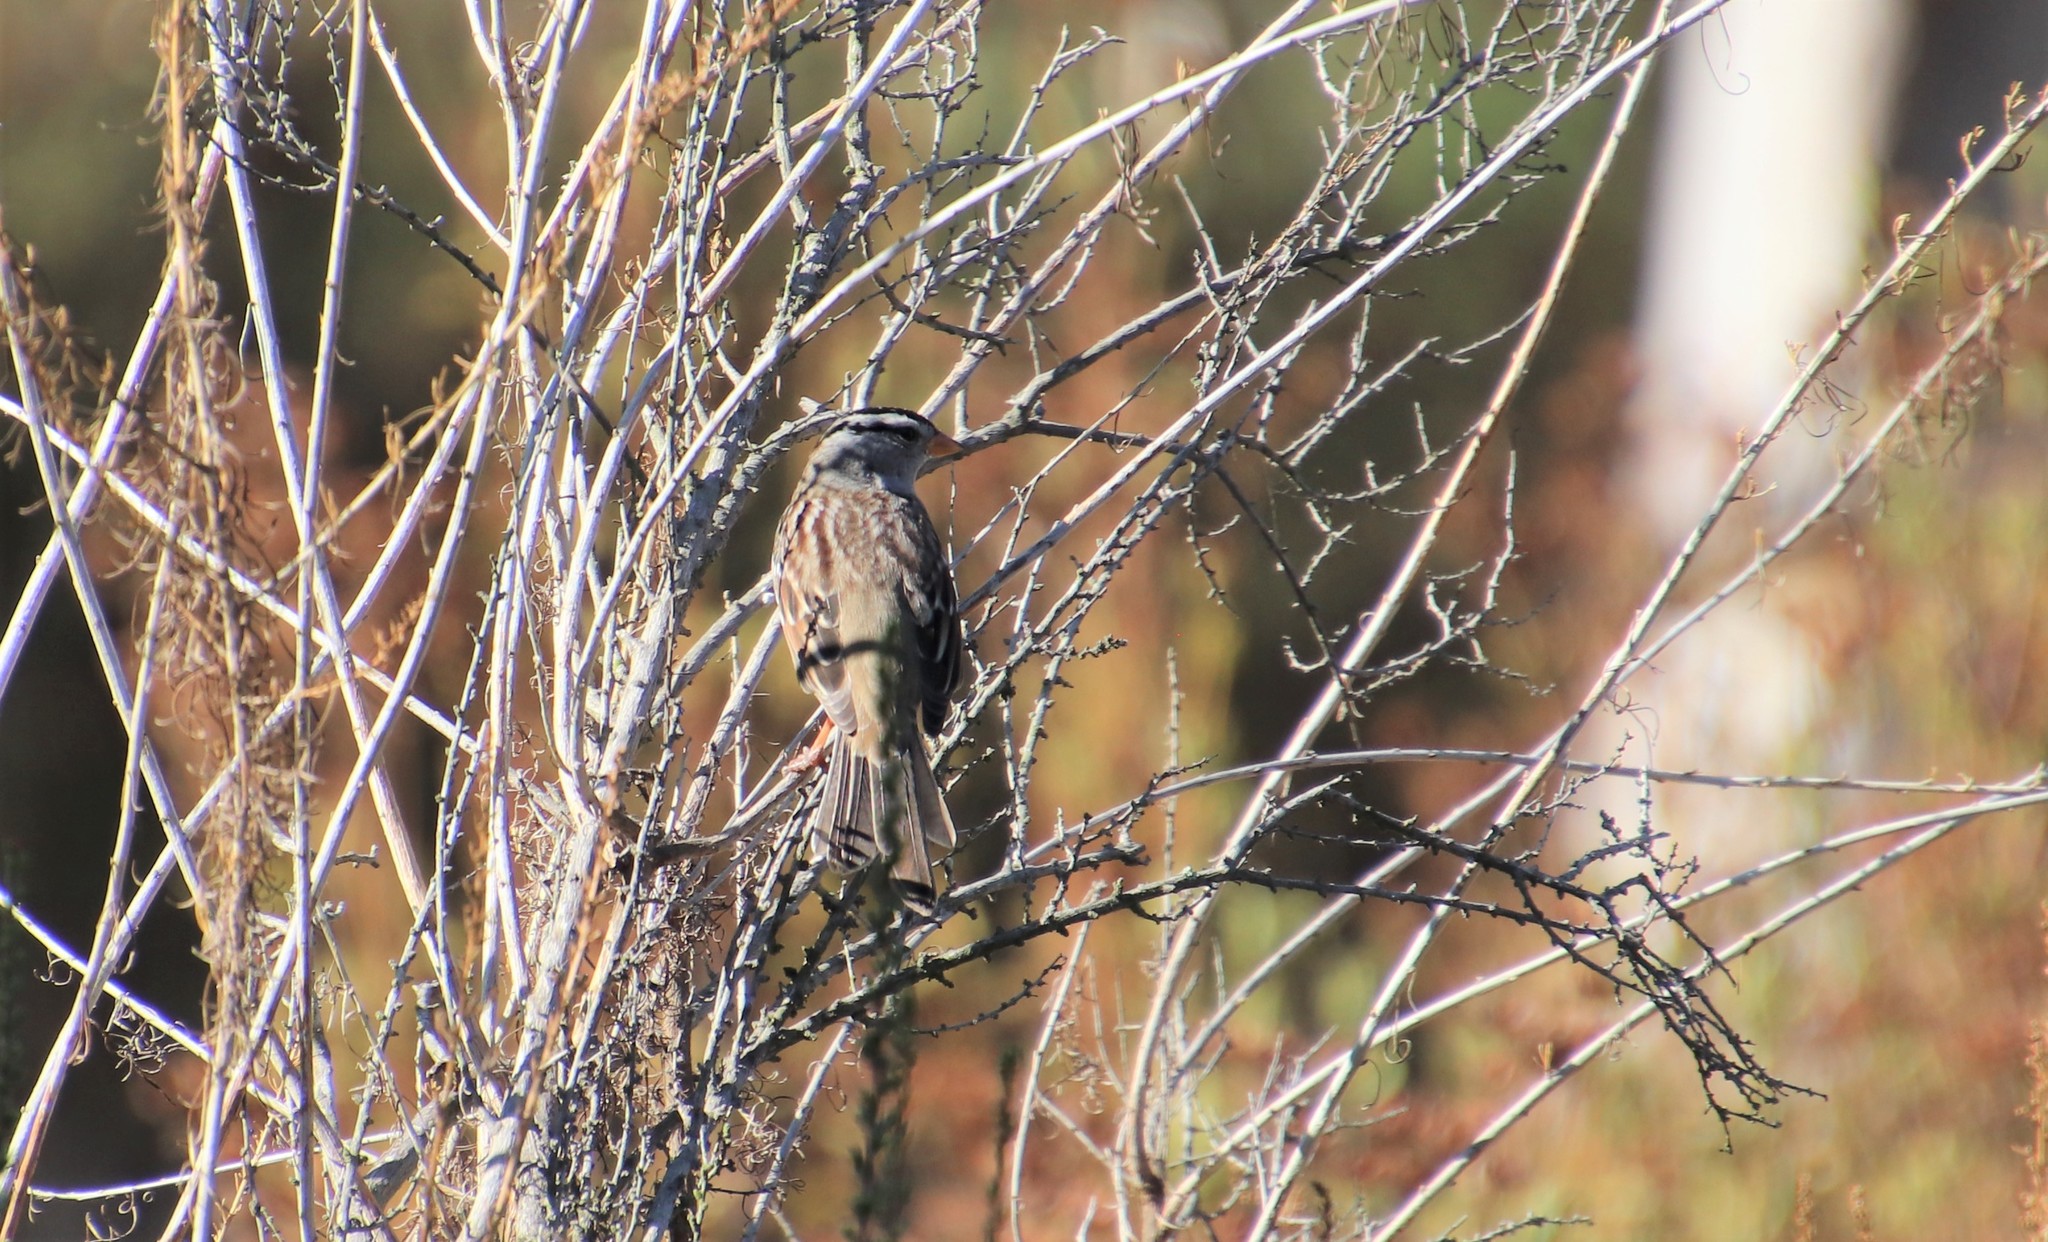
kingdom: Animalia
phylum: Chordata
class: Aves
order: Passeriformes
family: Passerellidae
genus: Zonotrichia
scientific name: Zonotrichia leucophrys
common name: White-crowned sparrow
